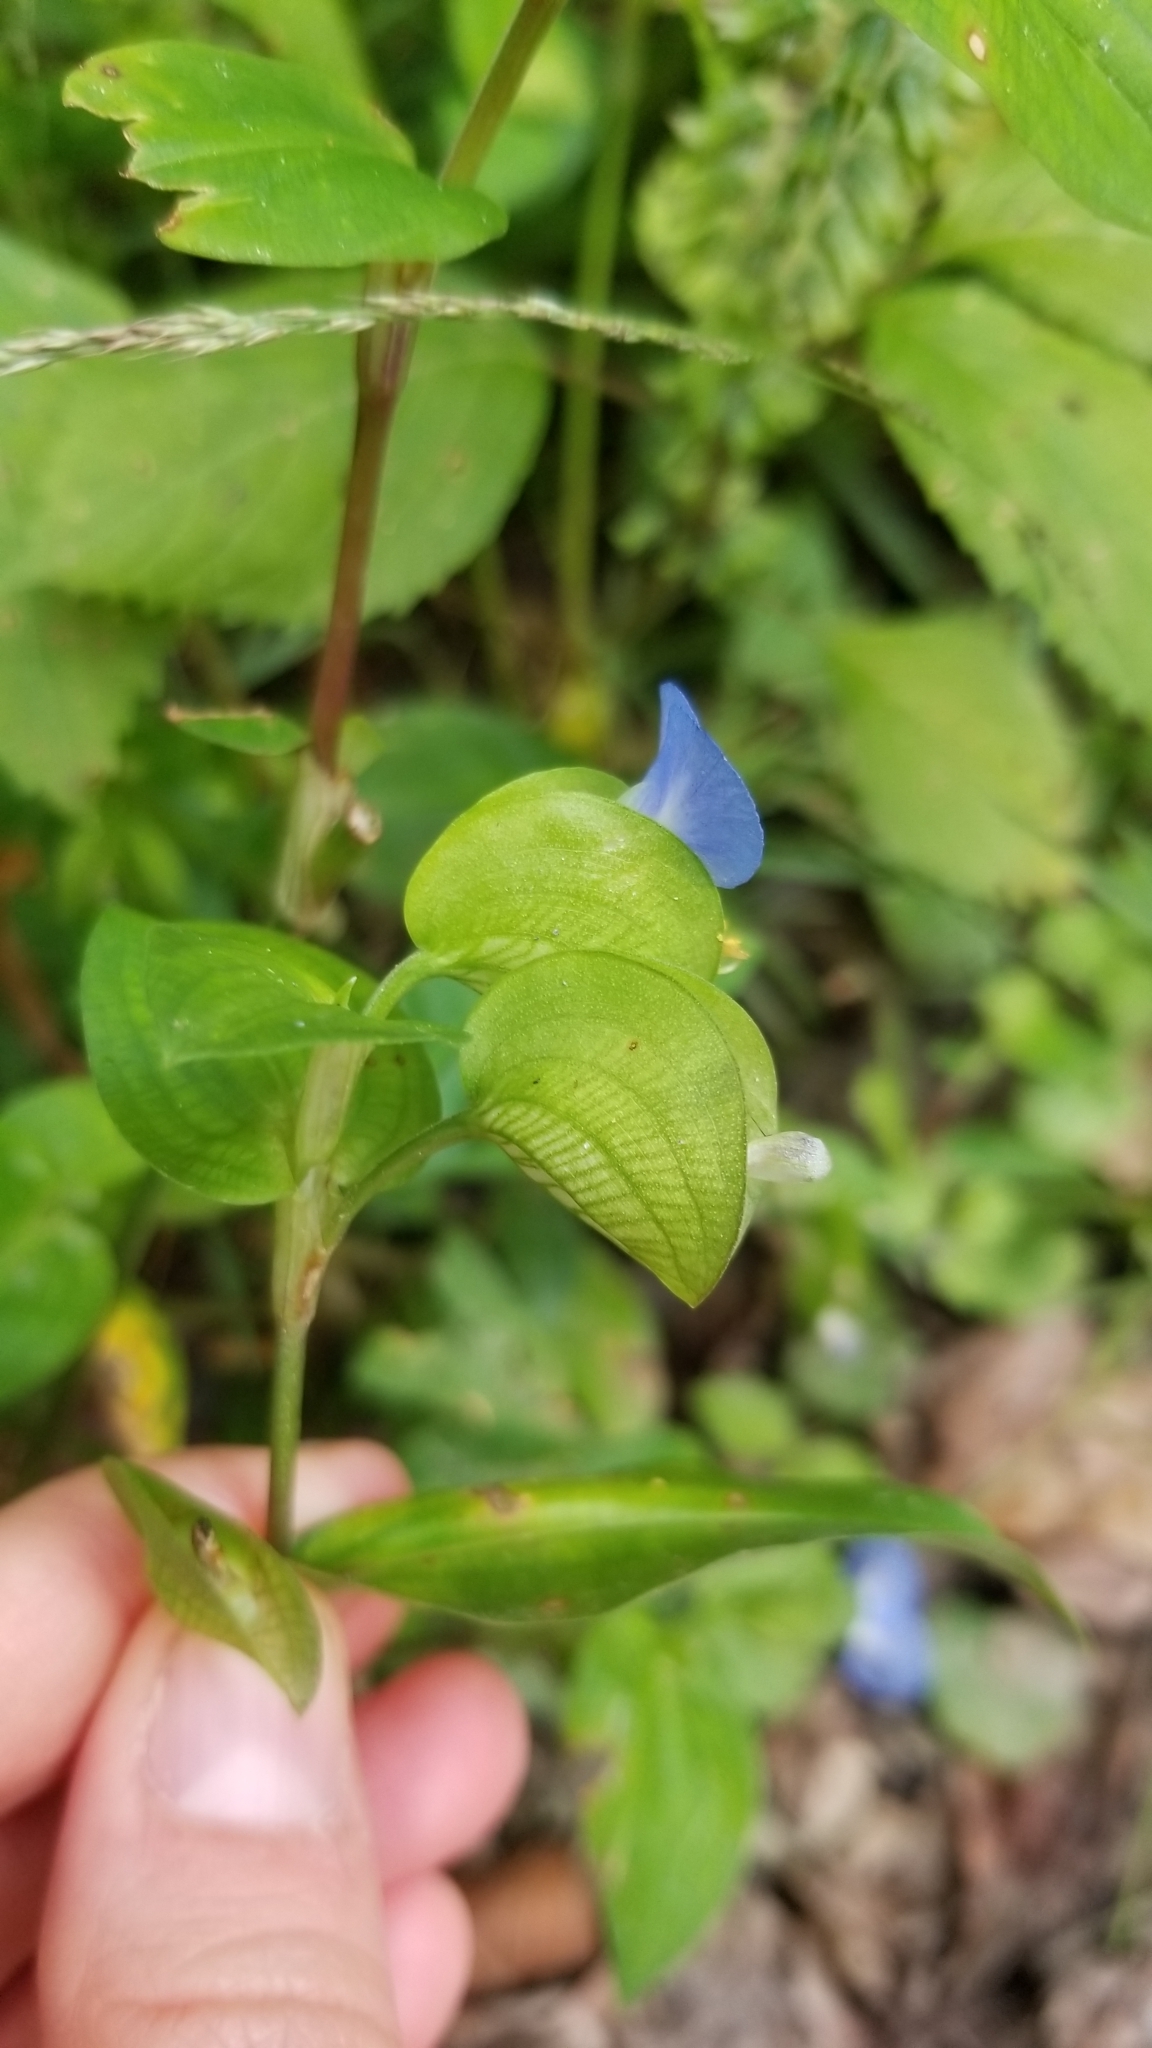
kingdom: Plantae
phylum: Tracheophyta
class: Liliopsida
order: Commelinales
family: Commelinaceae
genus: Commelina
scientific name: Commelina communis
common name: Asiatic dayflower
